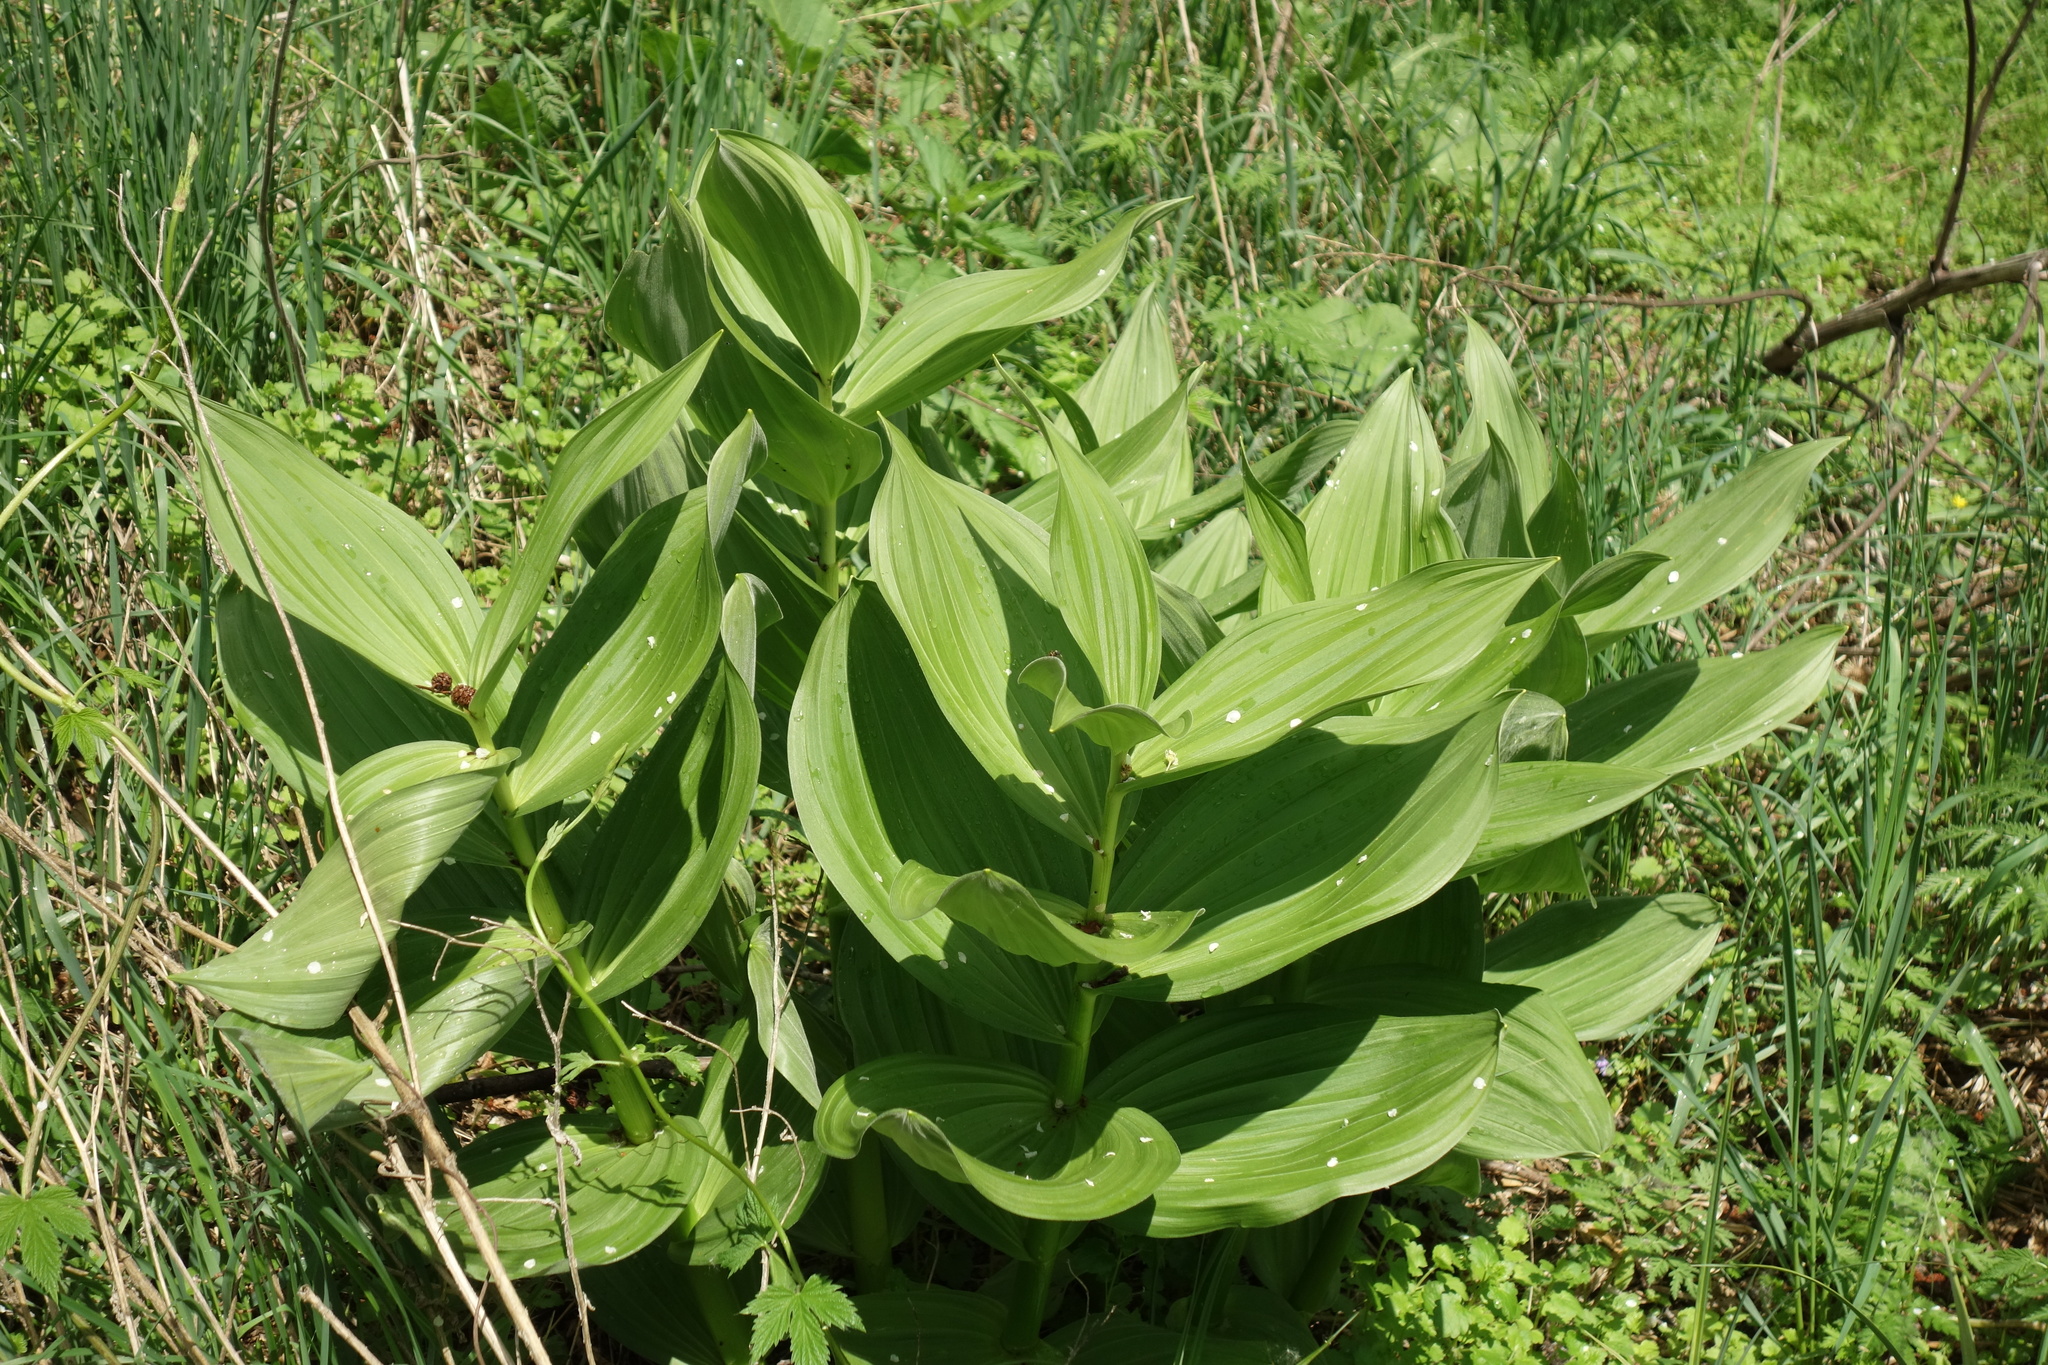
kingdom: Plantae
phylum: Tracheophyta
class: Liliopsida
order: Liliales
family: Melanthiaceae
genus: Veratrum
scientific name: Veratrum lobelianum
